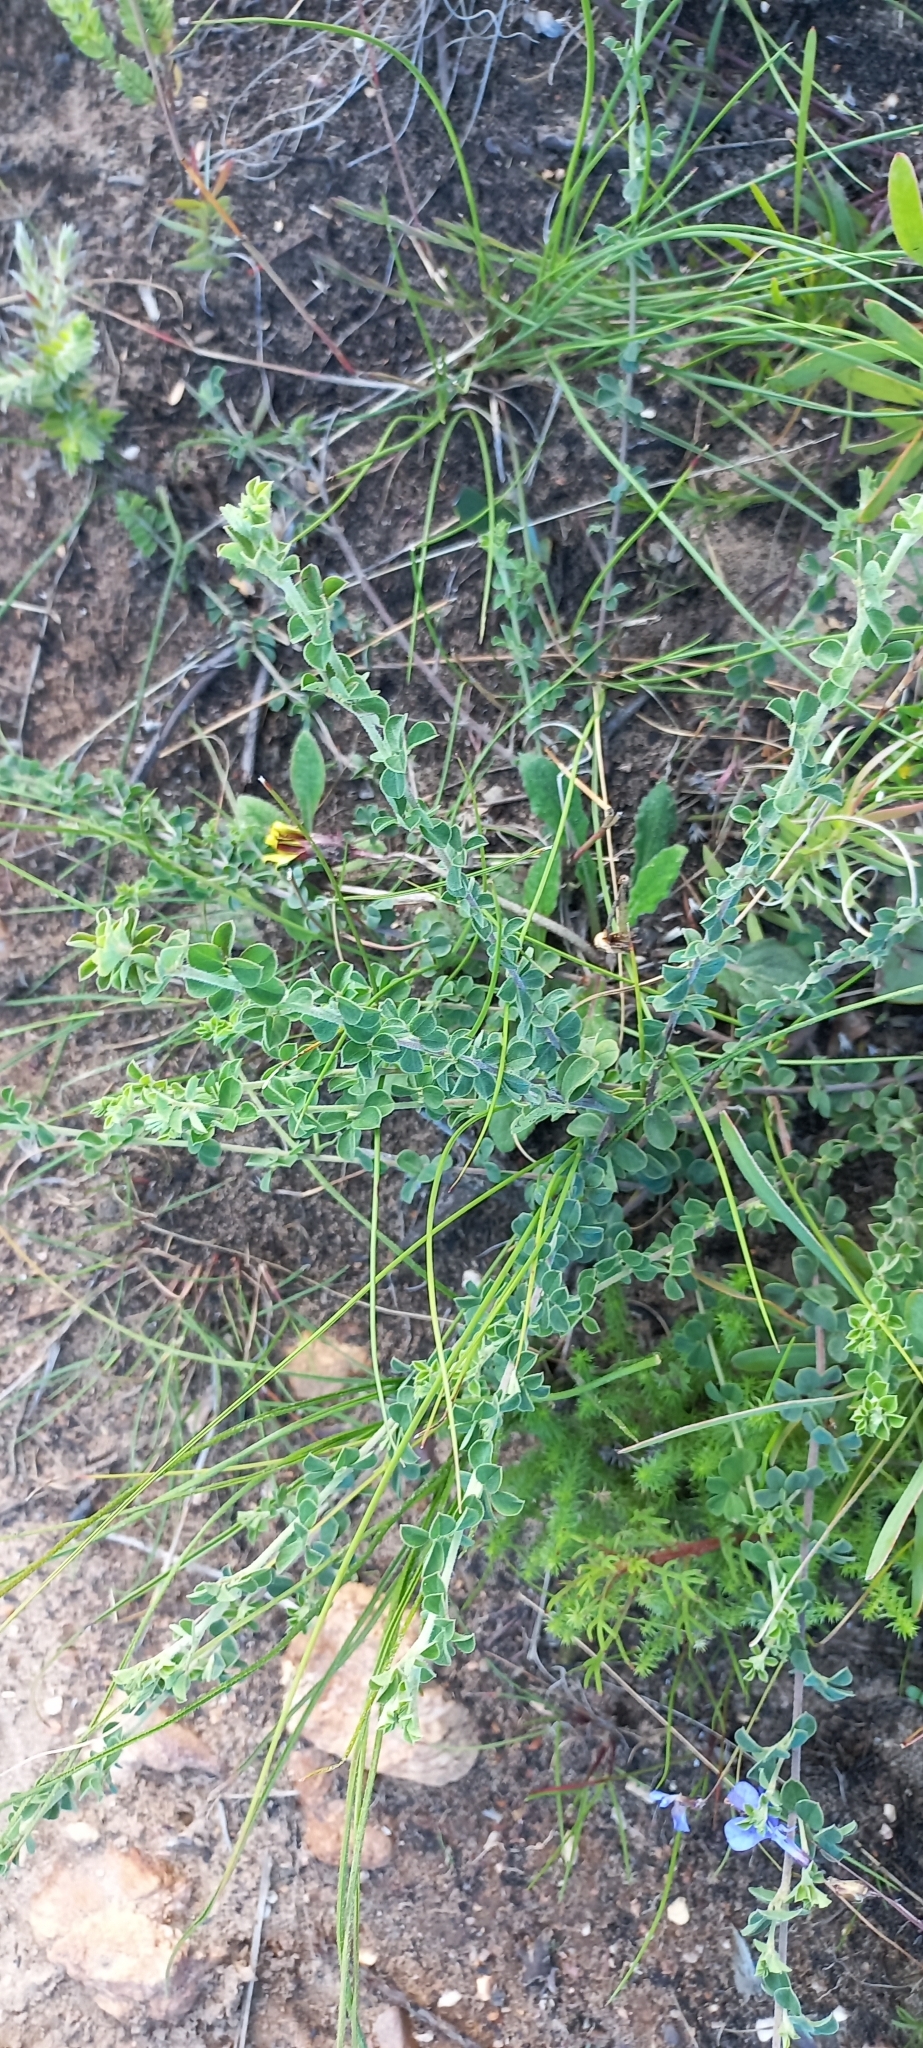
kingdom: Plantae
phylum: Tracheophyta
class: Magnoliopsida
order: Fabales
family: Fabaceae
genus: Indigofera
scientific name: Indigofera alopecuroides
